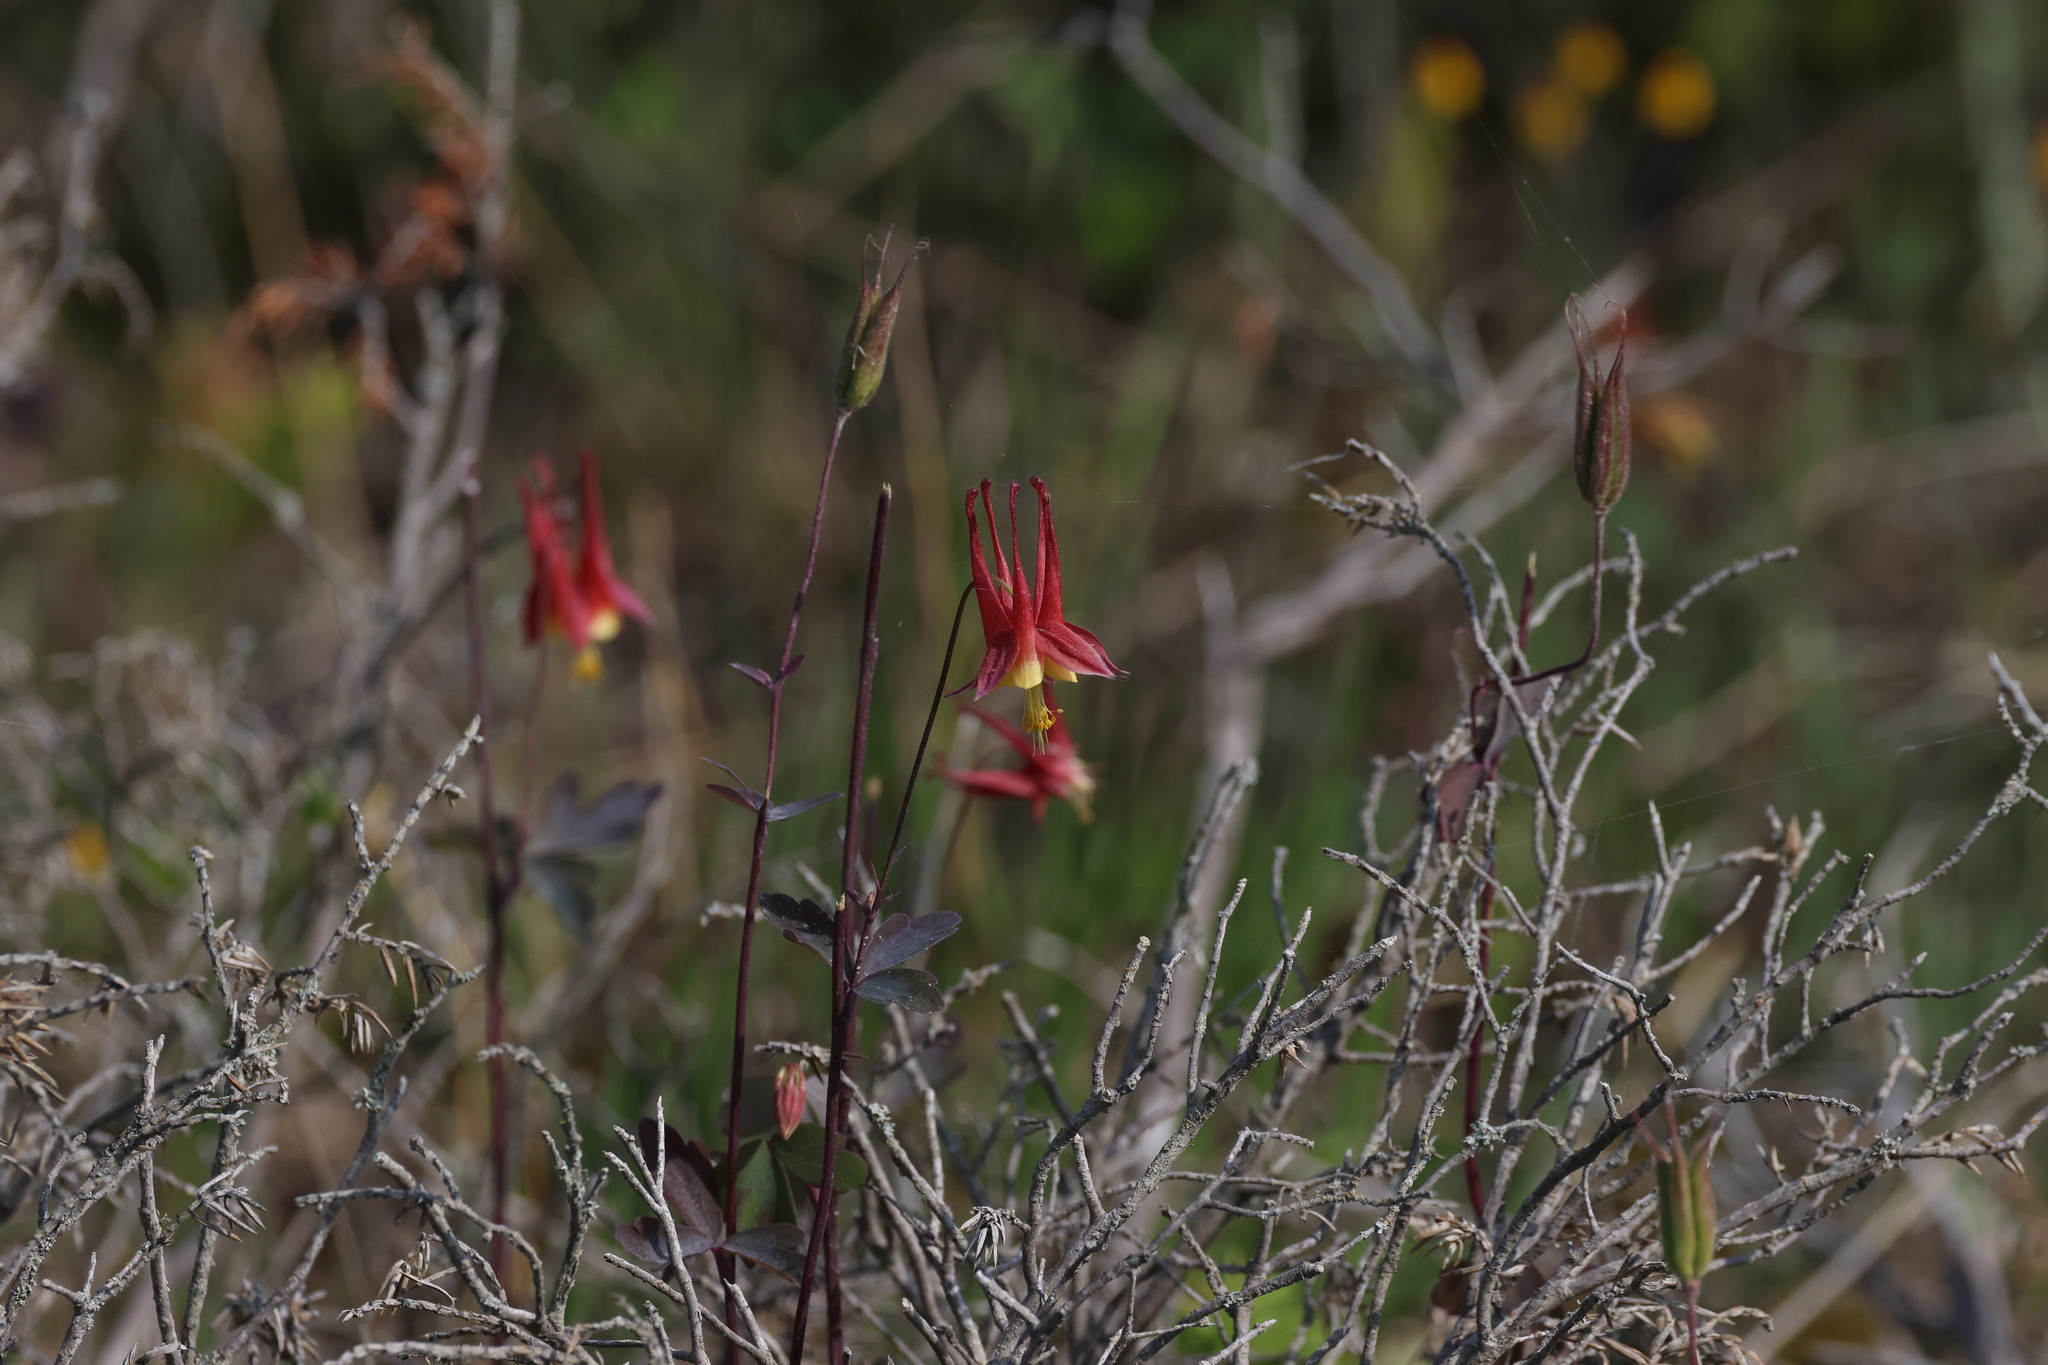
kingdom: Plantae
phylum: Tracheophyta
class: Magnoliopsida
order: Ranunculales
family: Ranunculaceae
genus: Aquilegia
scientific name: Aquilegia canadensis
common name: American columbine
